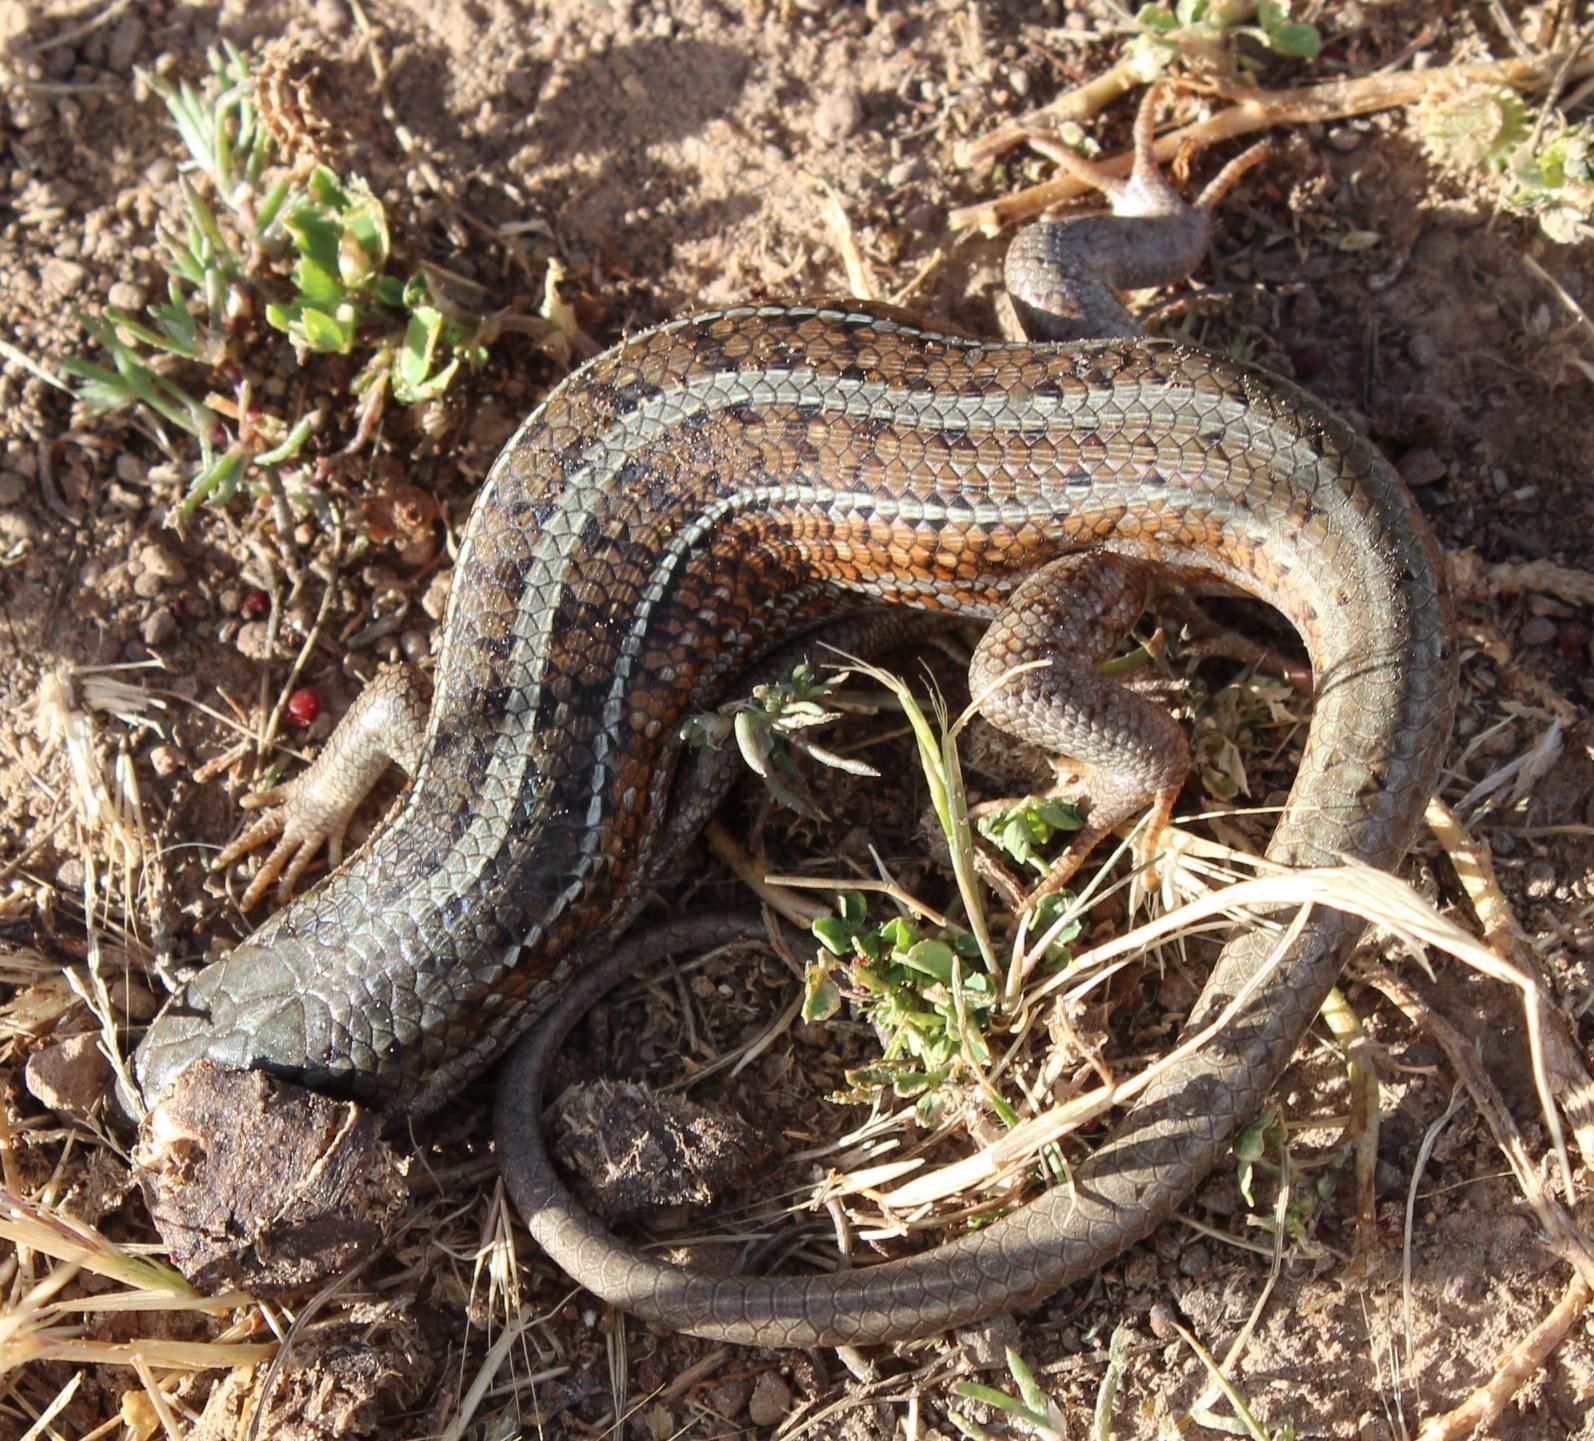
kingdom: Animalia
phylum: Chordata
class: Squamata
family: Scincidae
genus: Trachylepis
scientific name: Trachylepis capensis
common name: Cape skink
